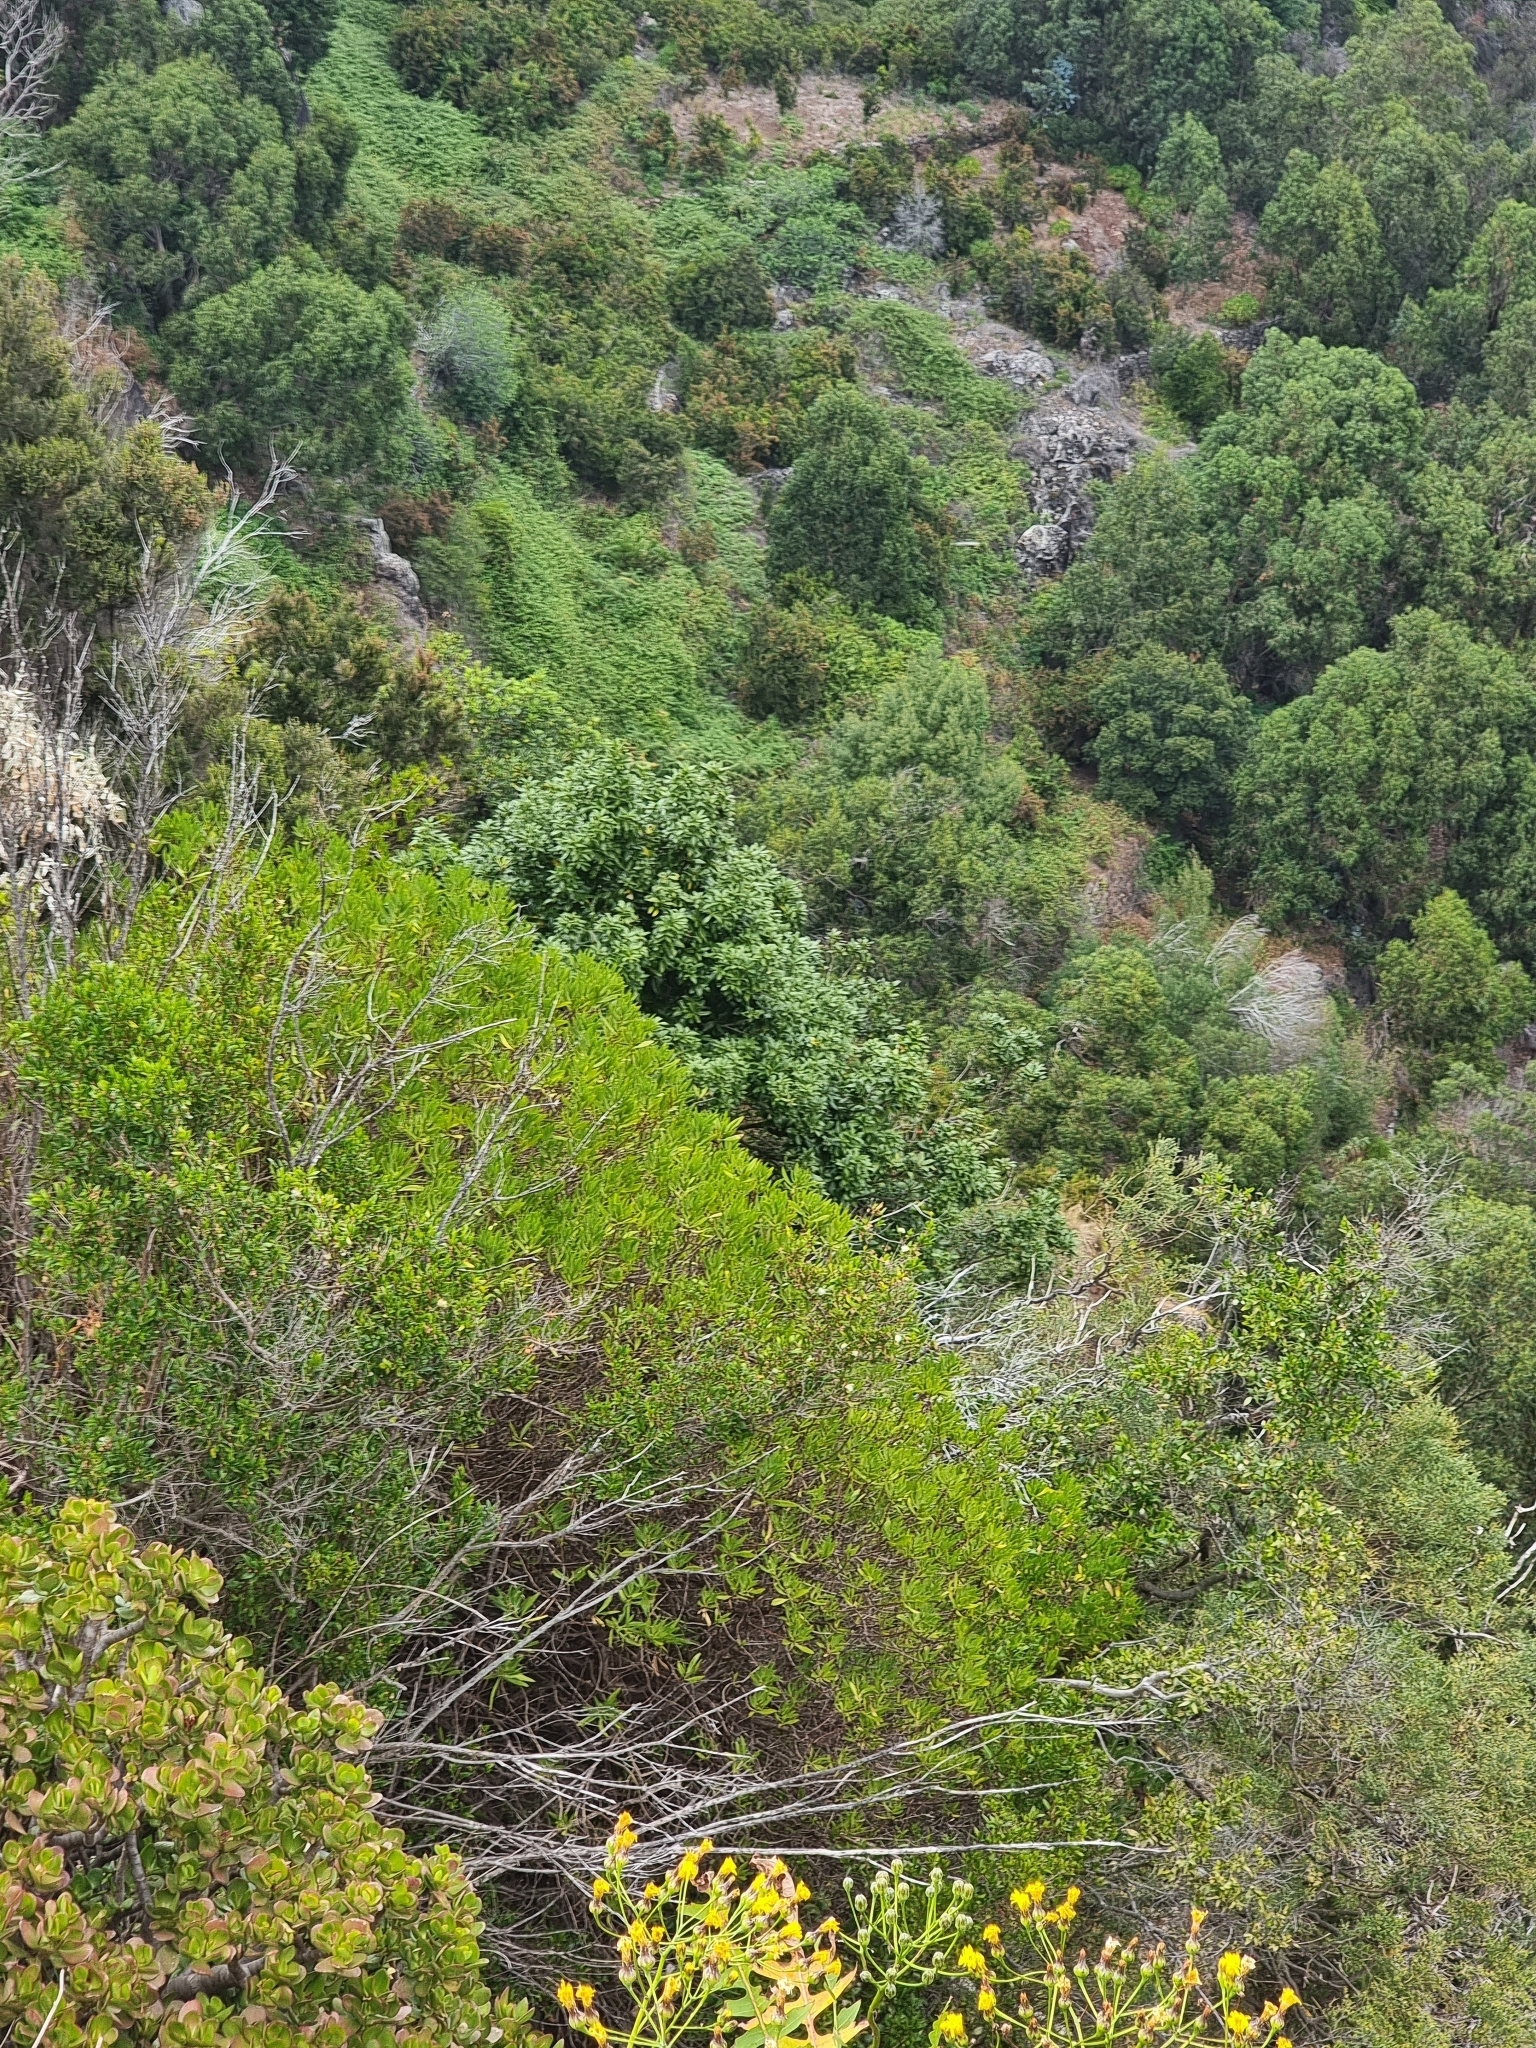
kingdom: Plantae
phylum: Tracheophyta
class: Magnoliopsida
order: Laurales
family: Lauraceae
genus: Apollonias
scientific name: Apollonias barbujana
